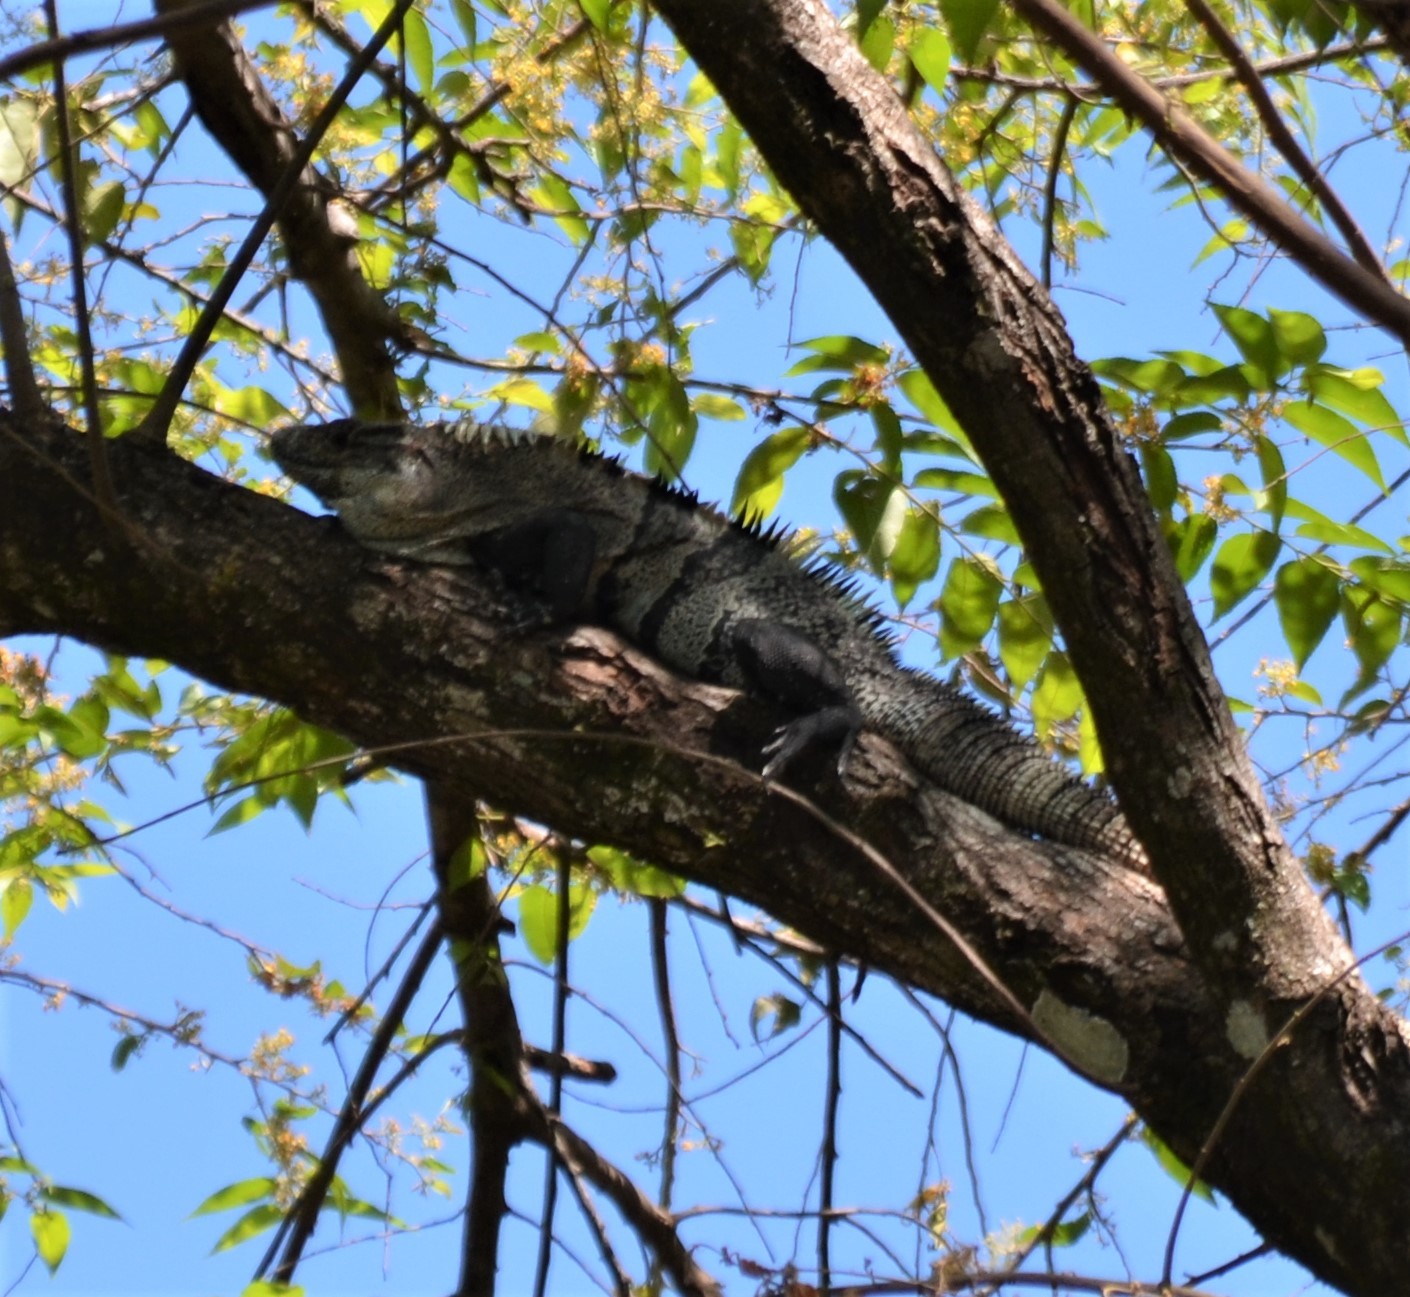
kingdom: Animalia
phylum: Chordata
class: Squamata
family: Iguanidae
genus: Ctenosaura
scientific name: Ctenosaura similis
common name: Black spiny-tailed iguana
